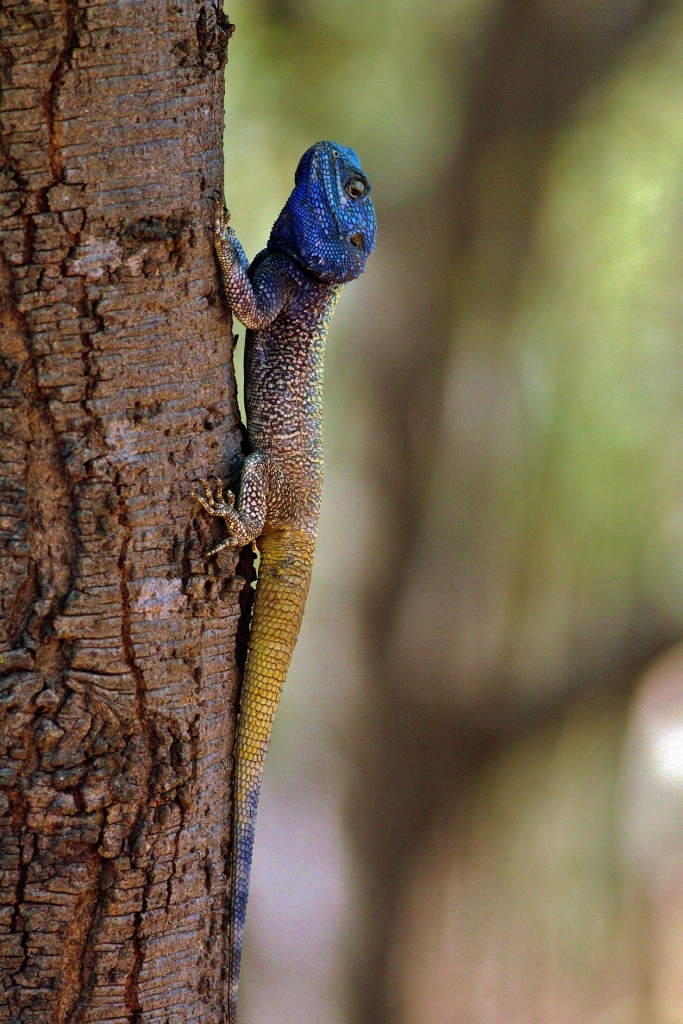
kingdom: Animalia
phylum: Chordata
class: Squamata
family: Agamidae
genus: Acanthocercus
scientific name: Acanthocercus atricollis
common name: Southern tree agama
